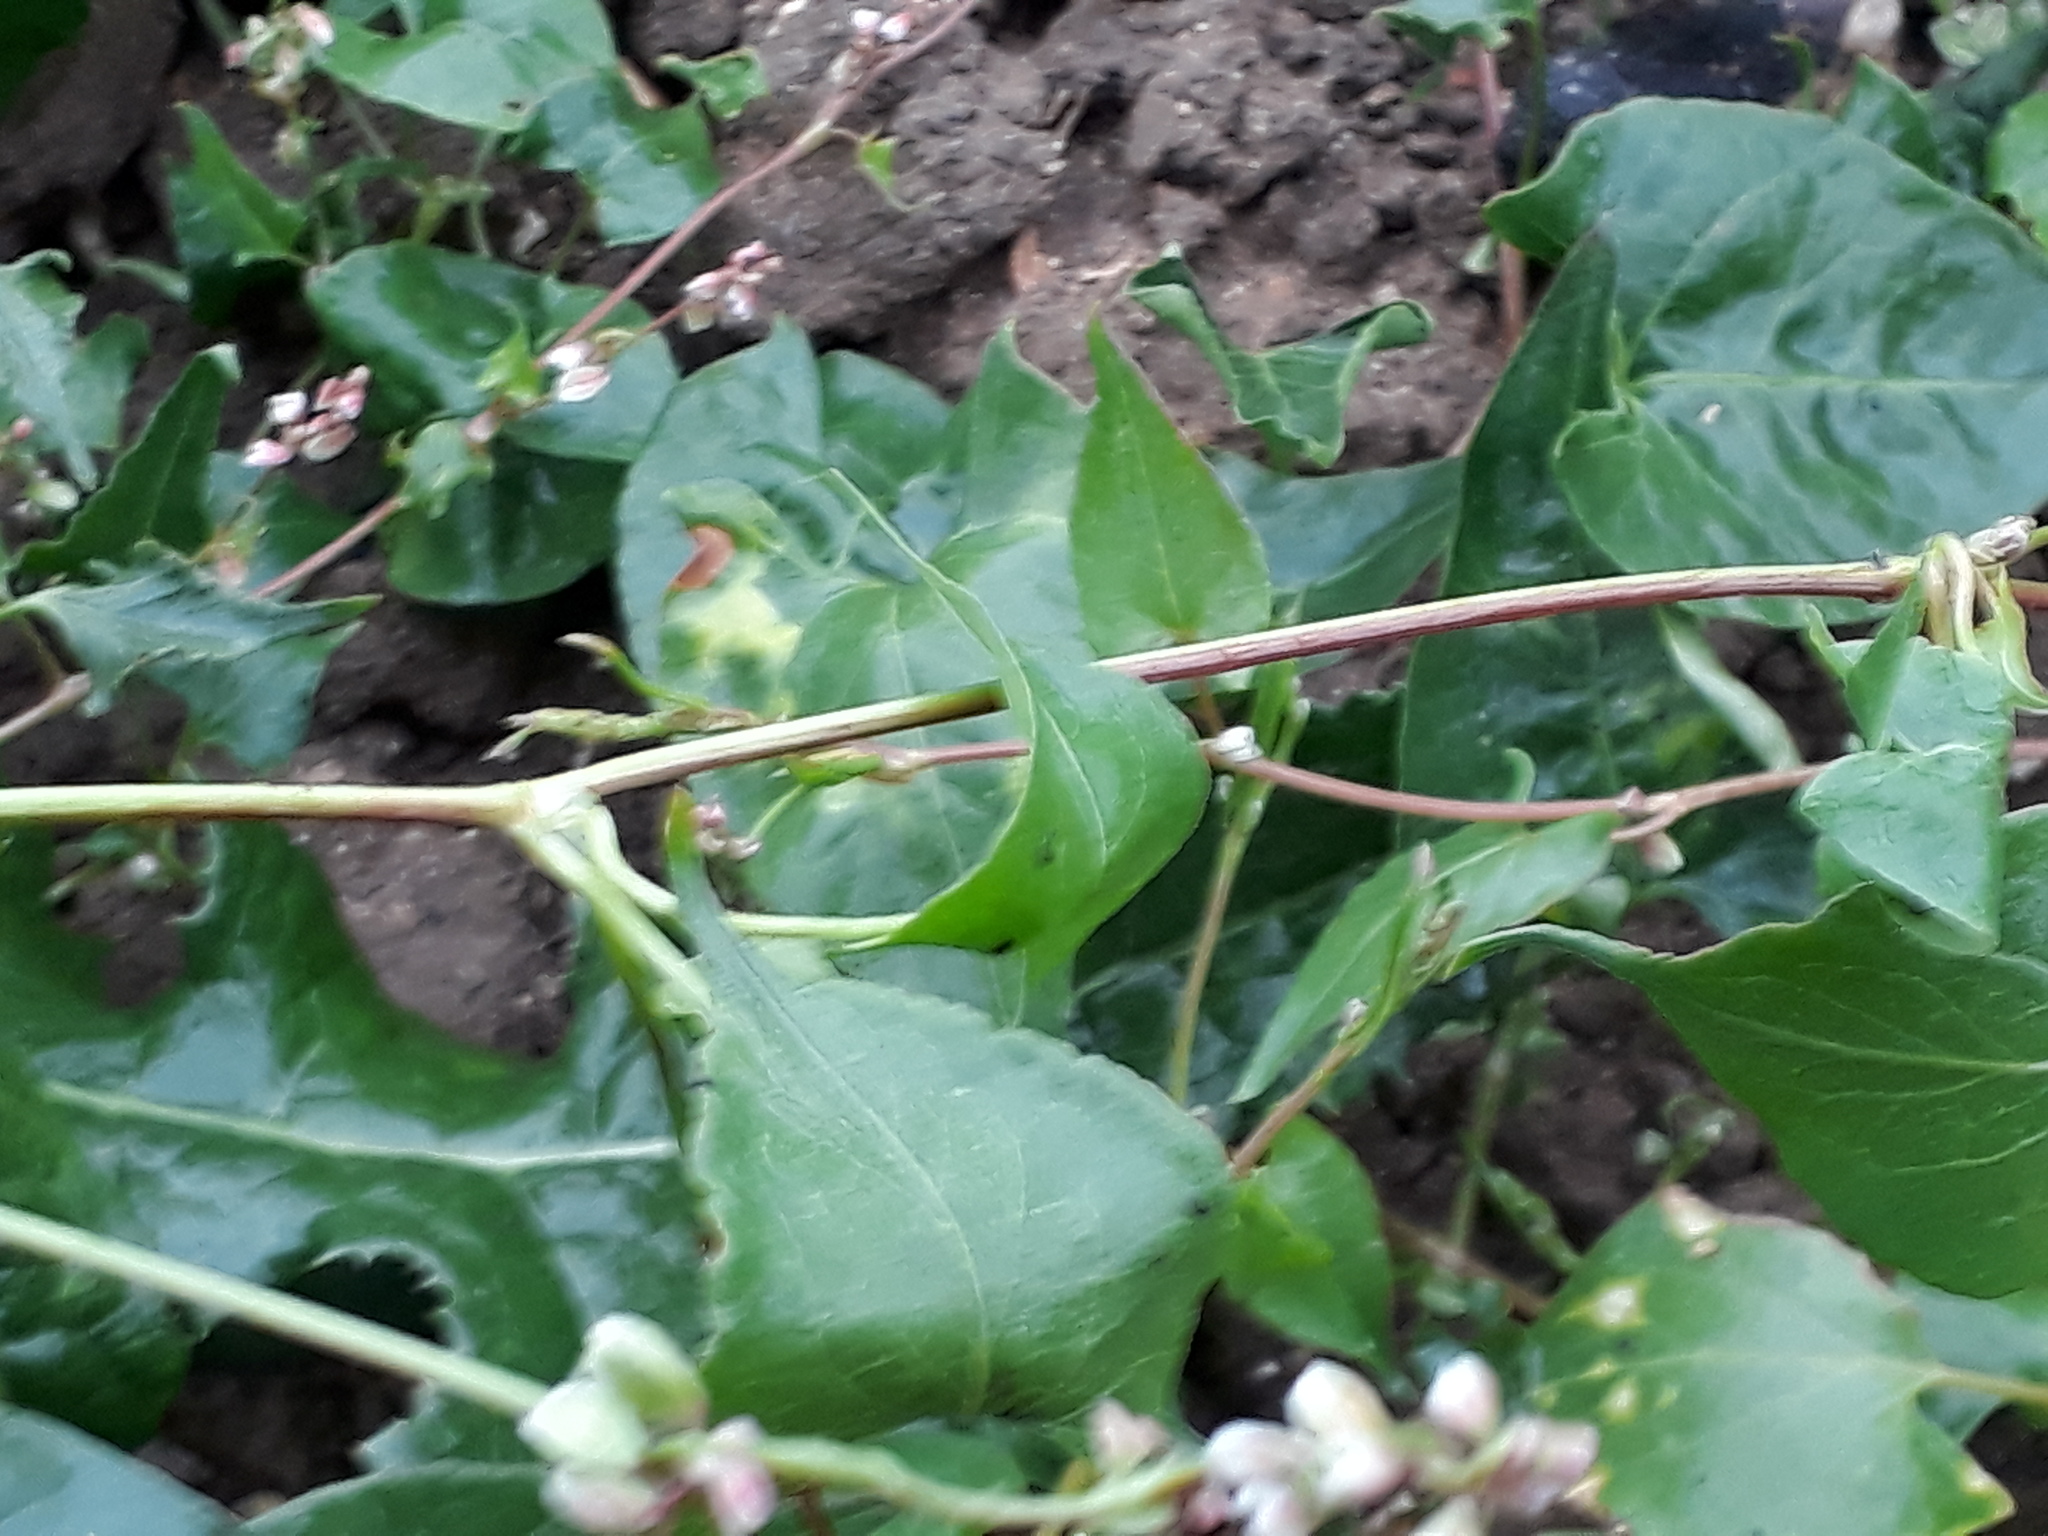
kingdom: Plantae
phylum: Tracheophyta
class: Magnoliopsida
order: Caryophyllales
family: Polygonaceae
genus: Fallopia
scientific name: Fallopia convolvulus
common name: Black bindweed
